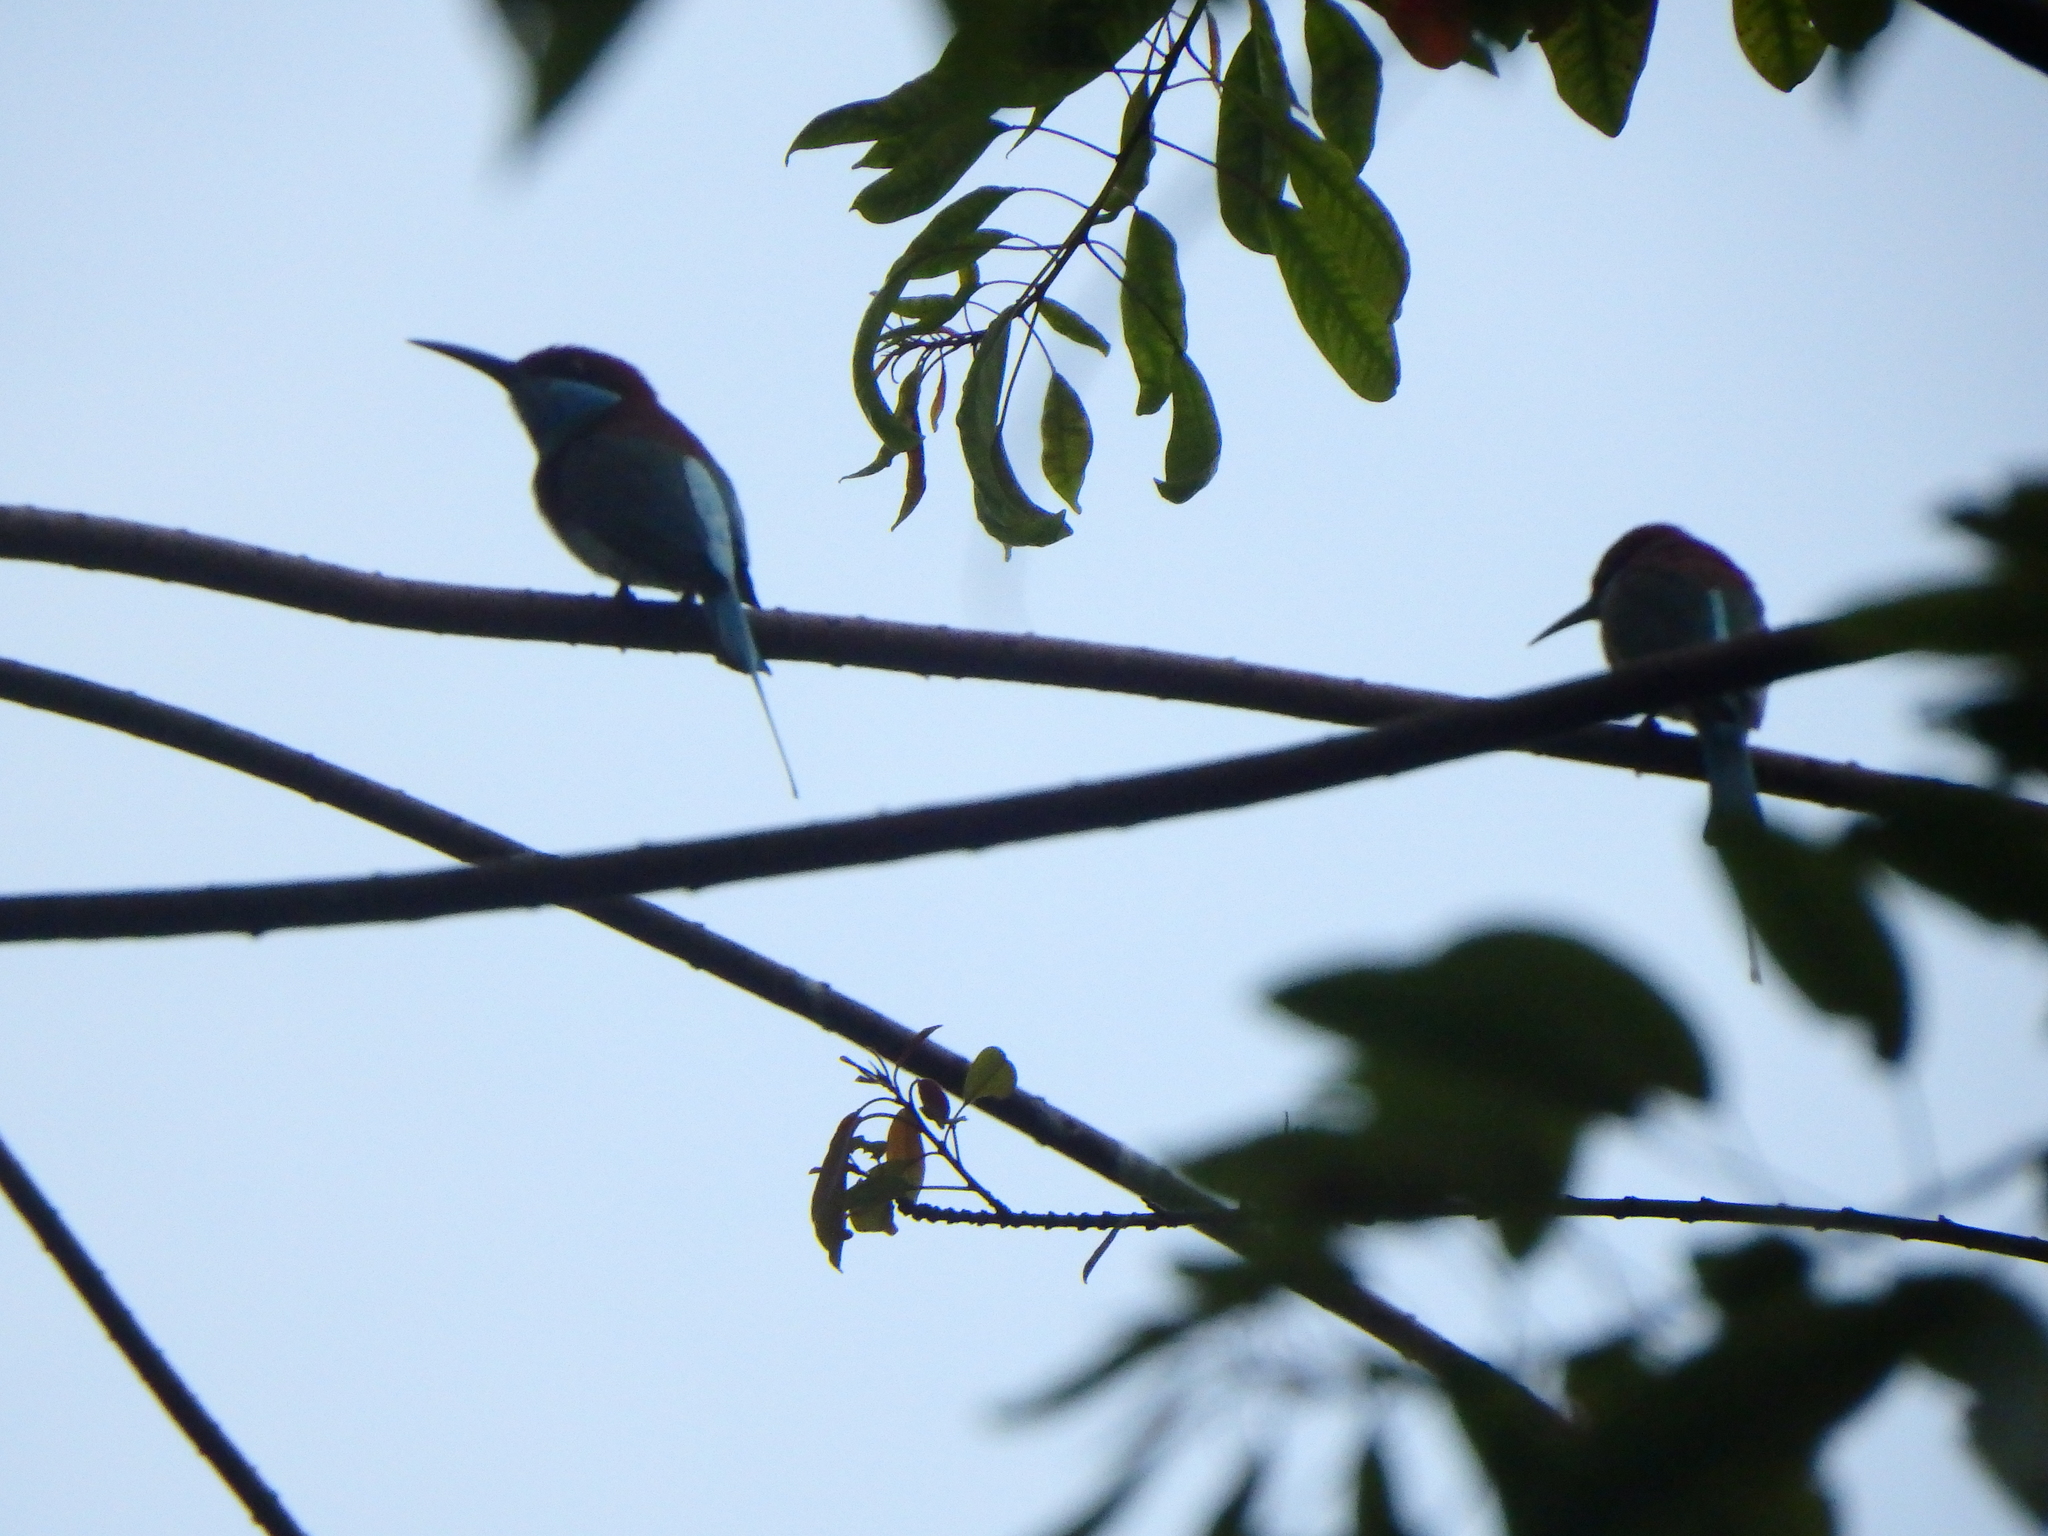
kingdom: Animalia
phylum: Chordata
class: Aves
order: Coraciiformes
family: Meropidae
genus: Merops
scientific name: Merops viridis
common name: Blue-throated bee-eater
